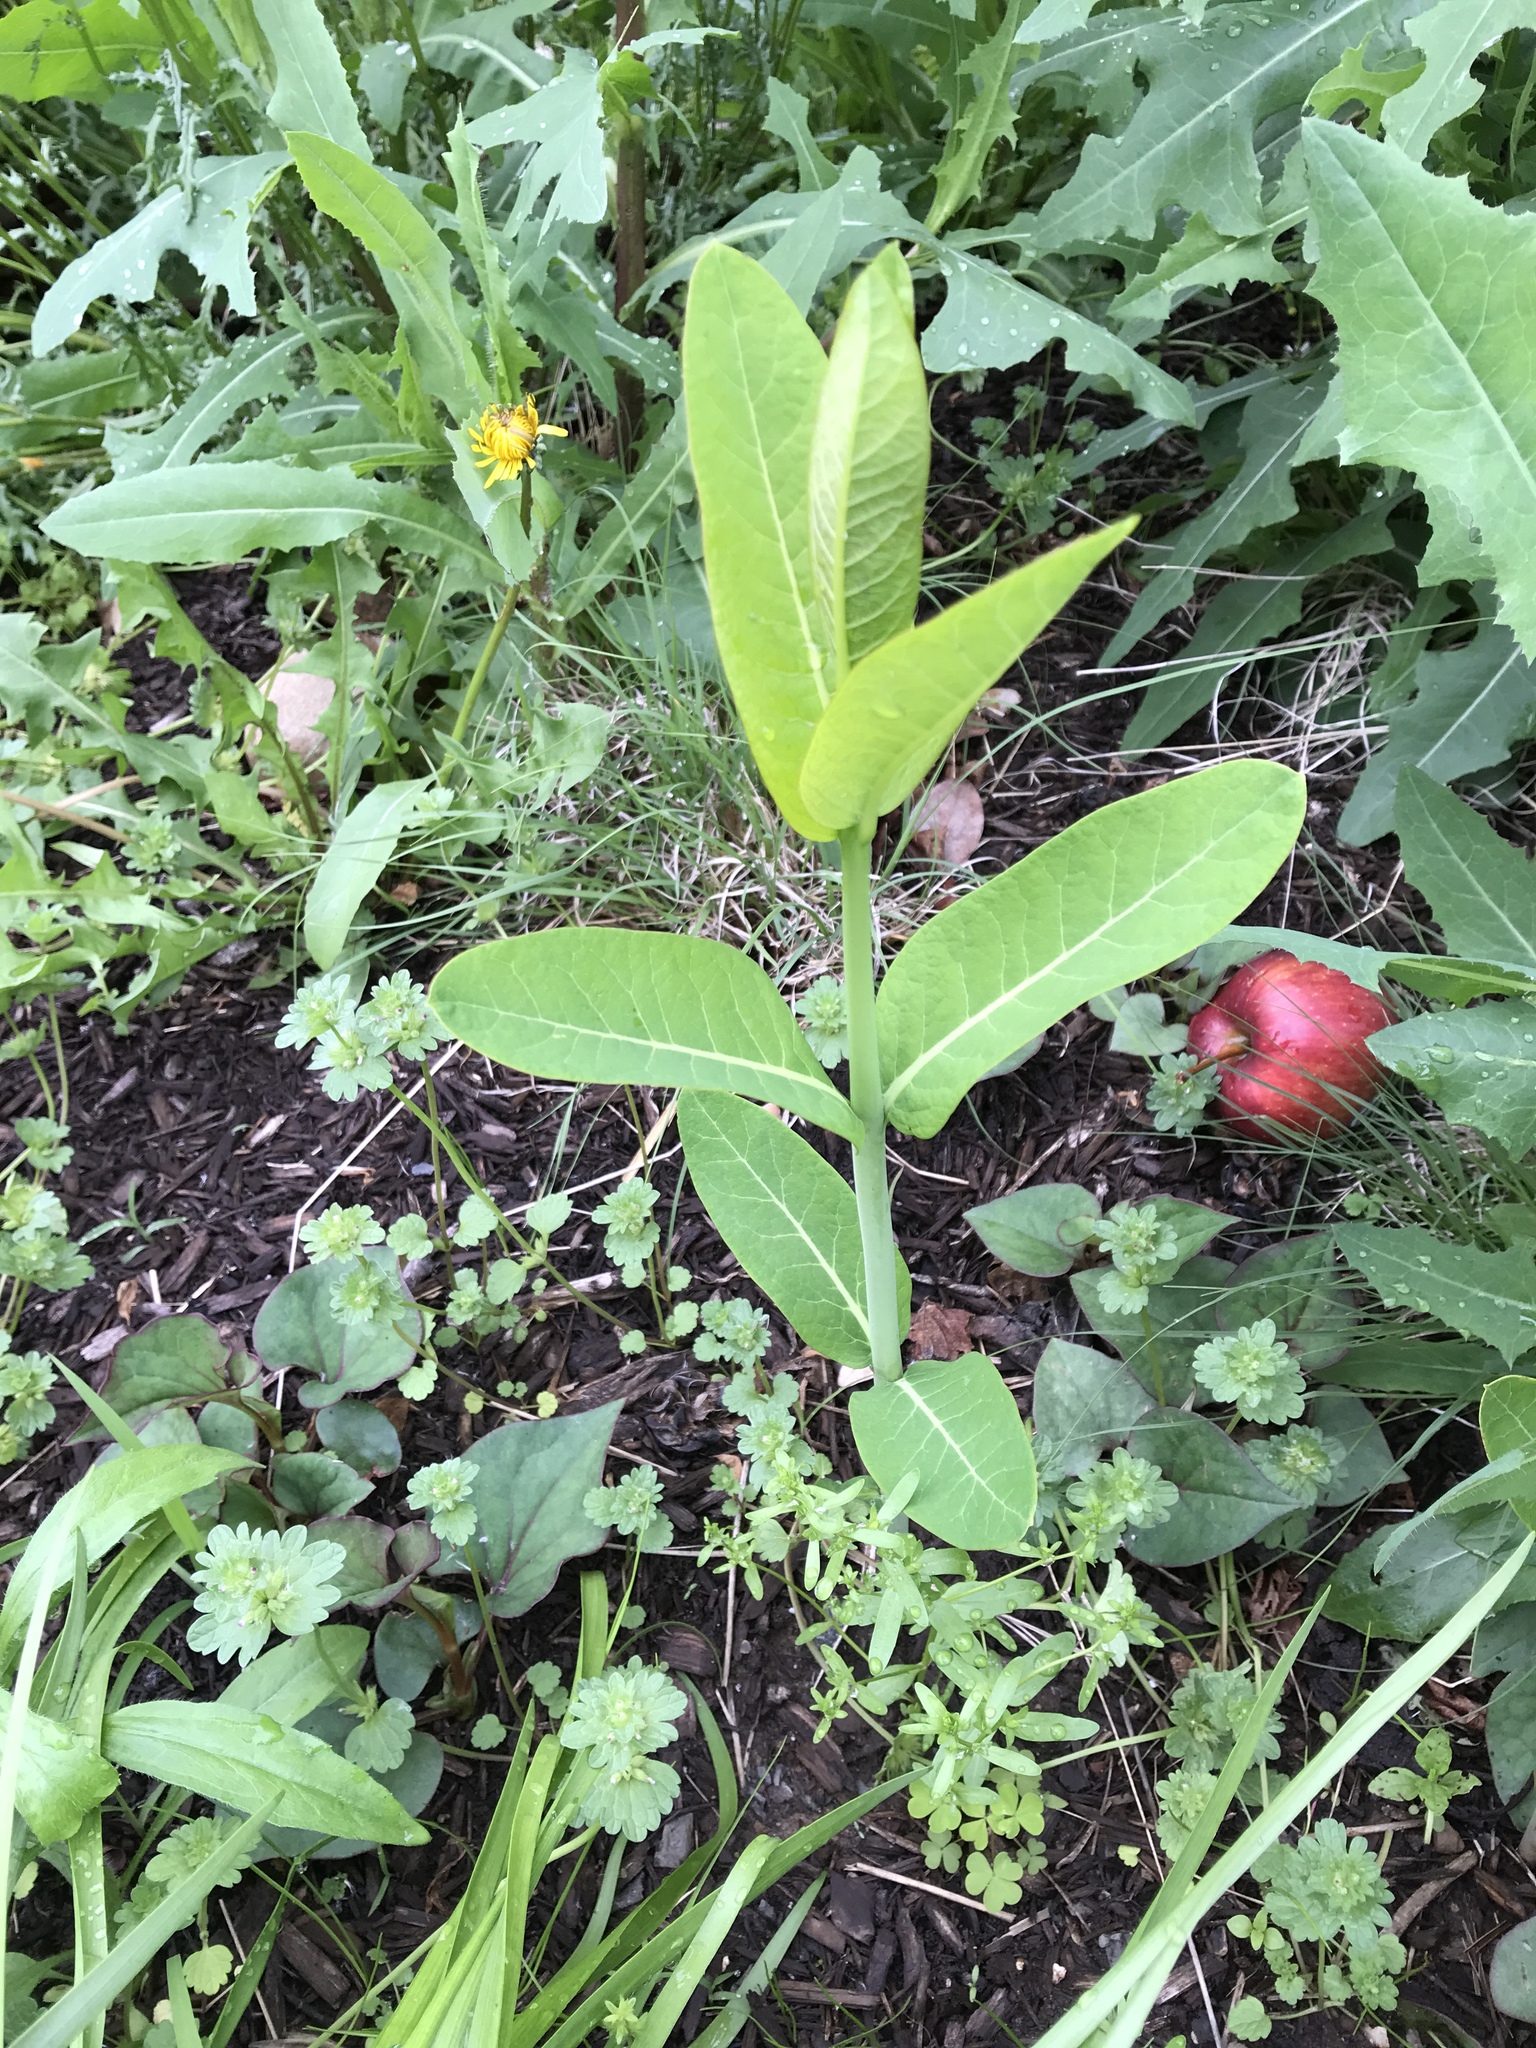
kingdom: Plantae
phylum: Tracheophyta
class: Magnoliopsida
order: Gentianales
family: Apocynaceae
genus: Asclepias
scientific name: Asclepias syriaca
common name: Common milkweed
